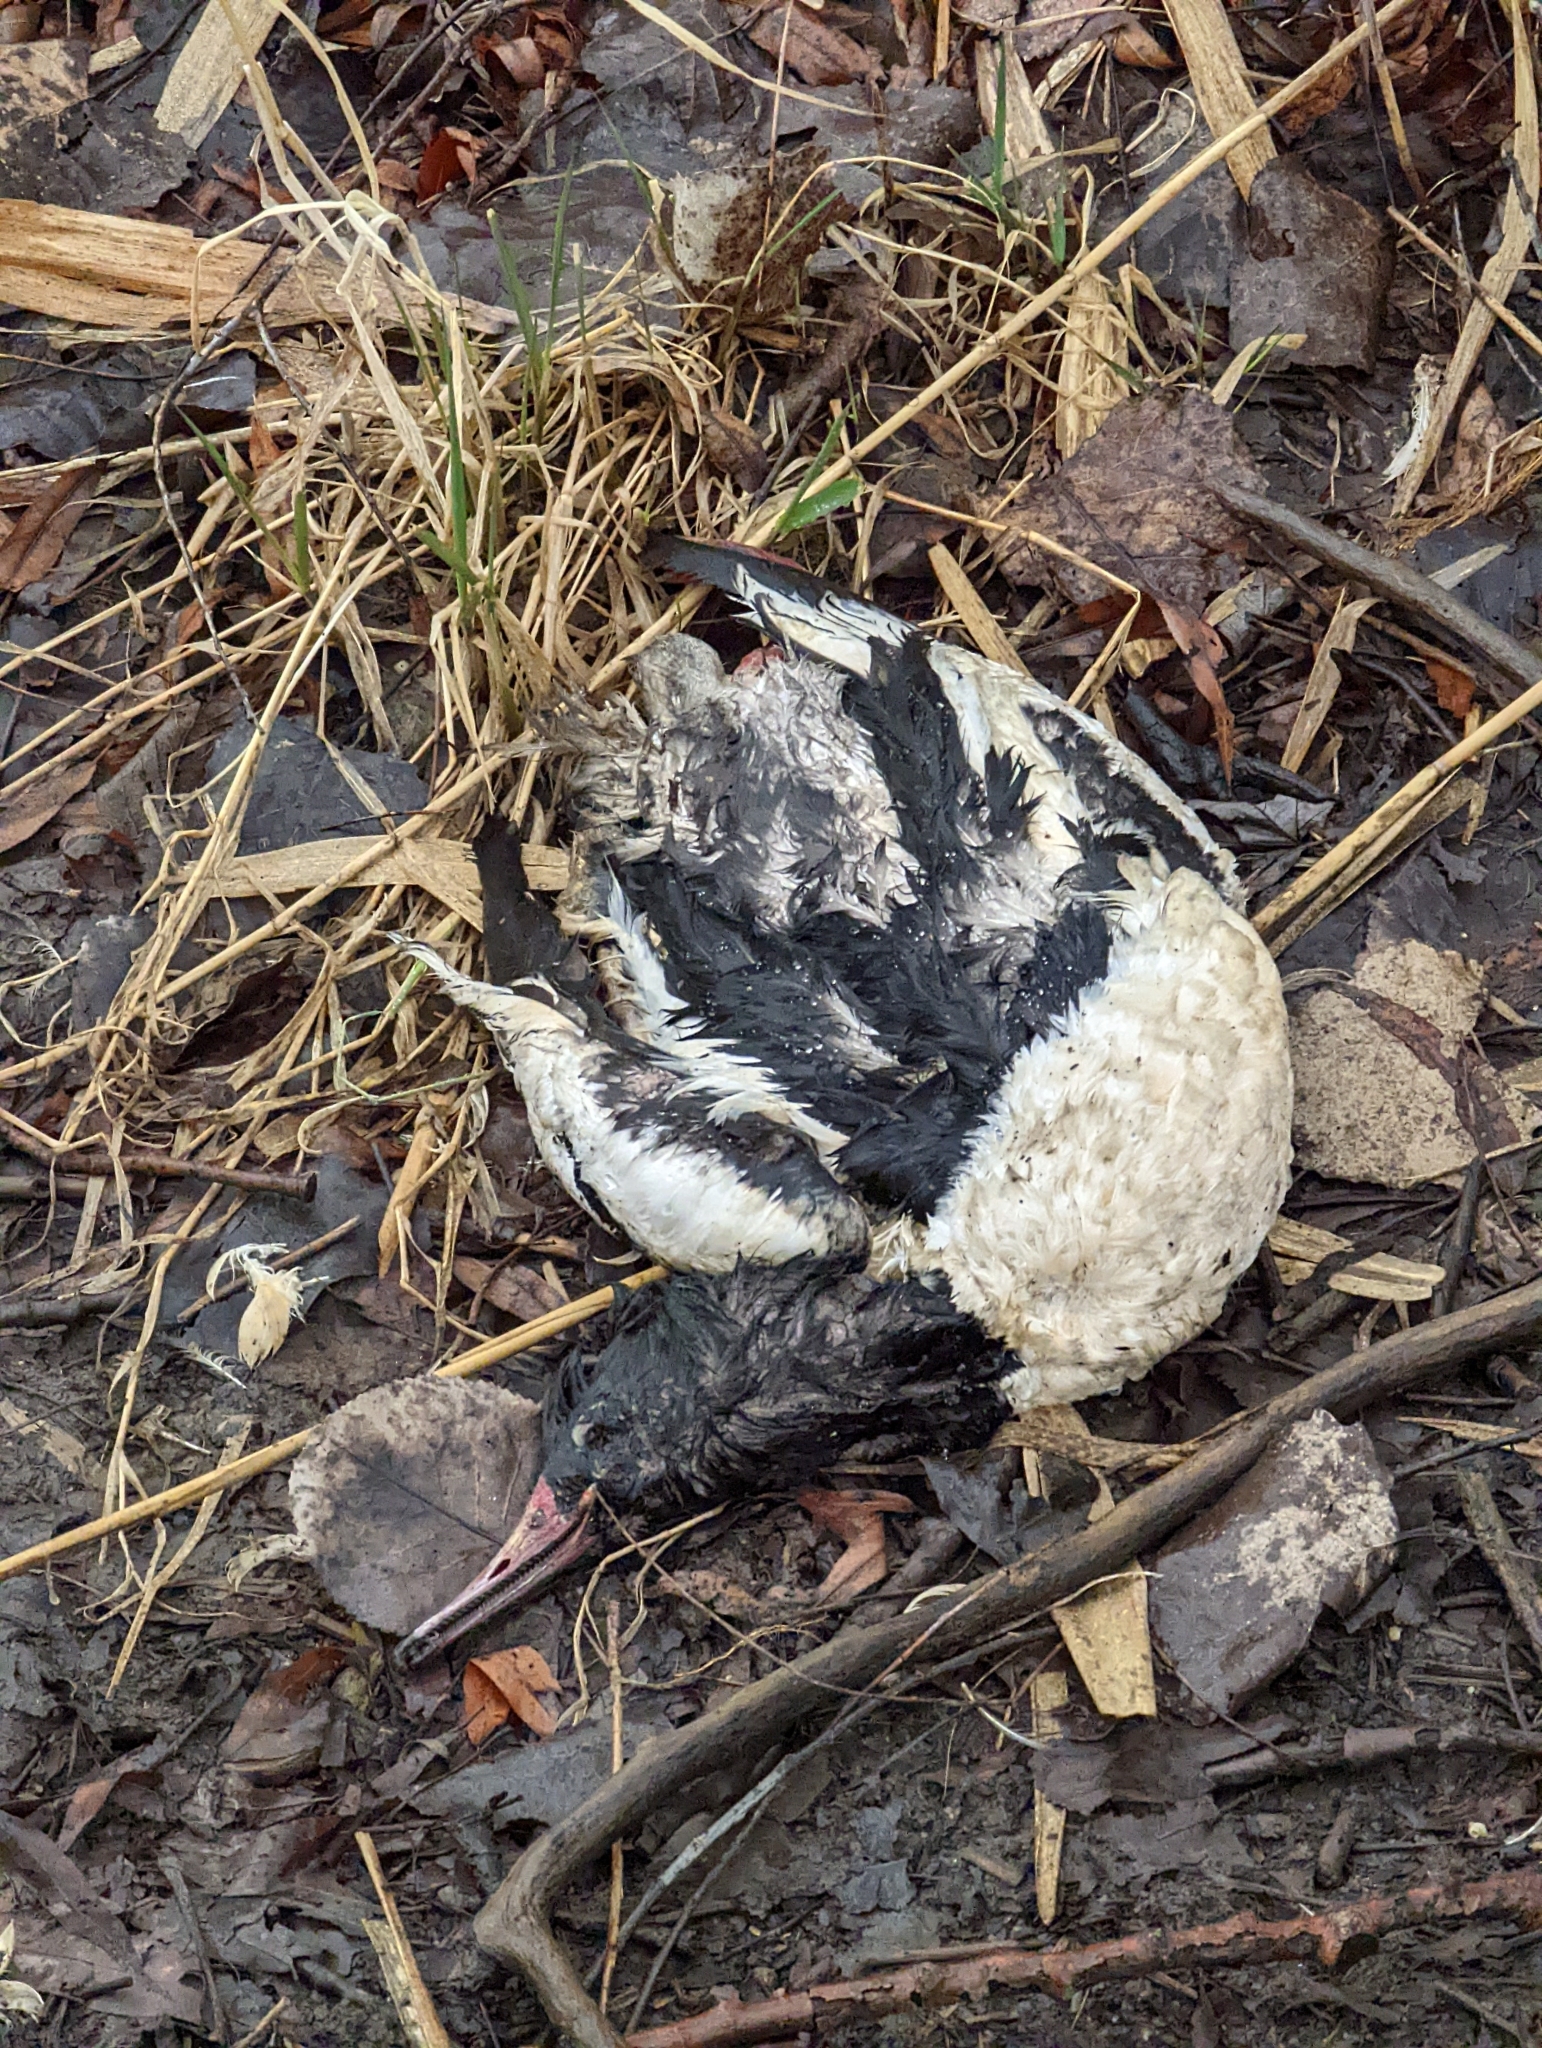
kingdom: Animalia
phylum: Chordata
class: Aves
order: Anseriformes
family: Anatidae
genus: Mergus
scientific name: Mergus merganser
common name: Common merganser
